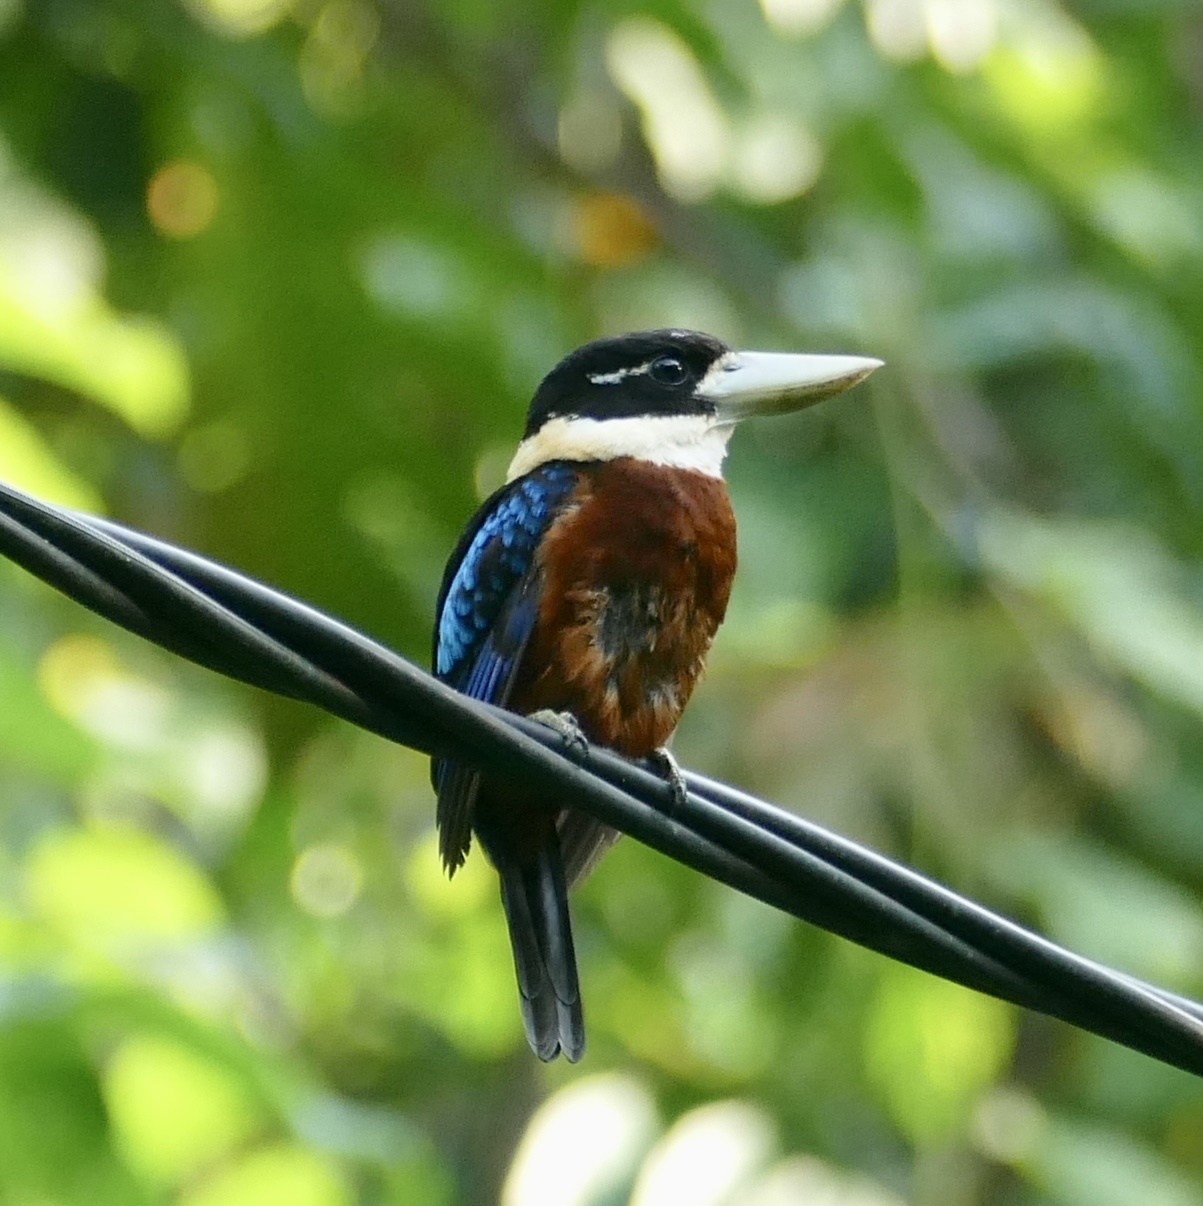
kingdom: Animalia
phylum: Chordata
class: Aves
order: Coraciiformes
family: Alcedinidae
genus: Dacelo
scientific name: Dacelo gaudichaud
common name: Rufous-bellied kookaburra
